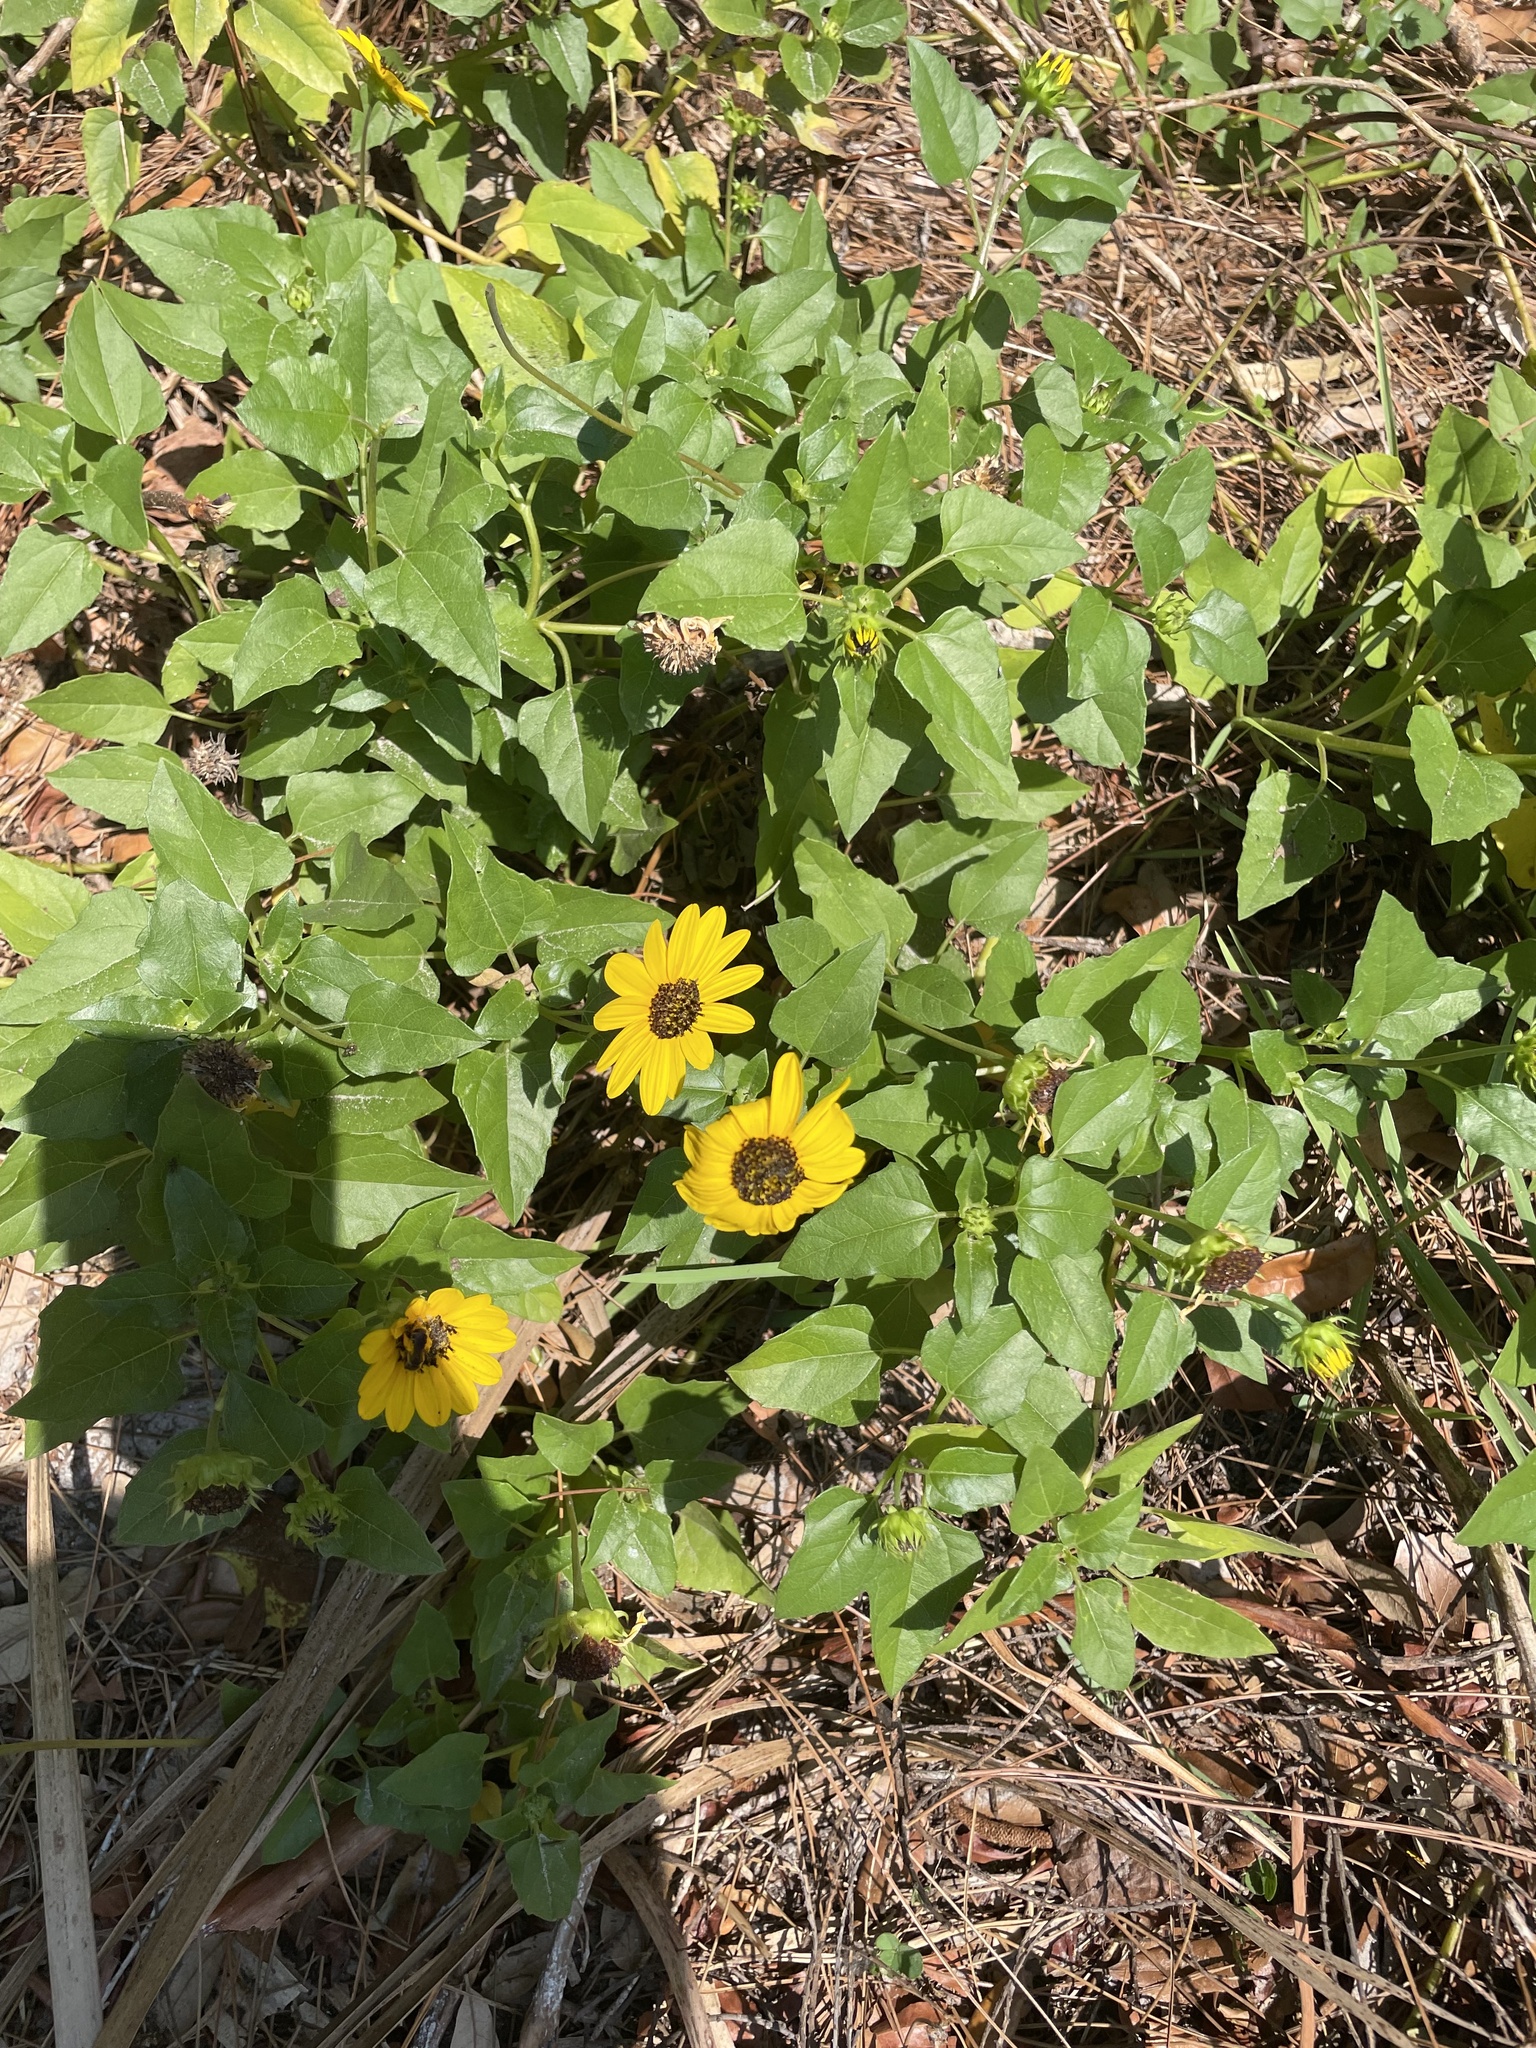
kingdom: Plantae
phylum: Tracheophyta
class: Magnoliopsida
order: Asterales
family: Asteraceae
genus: Helianthus
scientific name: Helianthus debilis
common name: Weak sunflower
